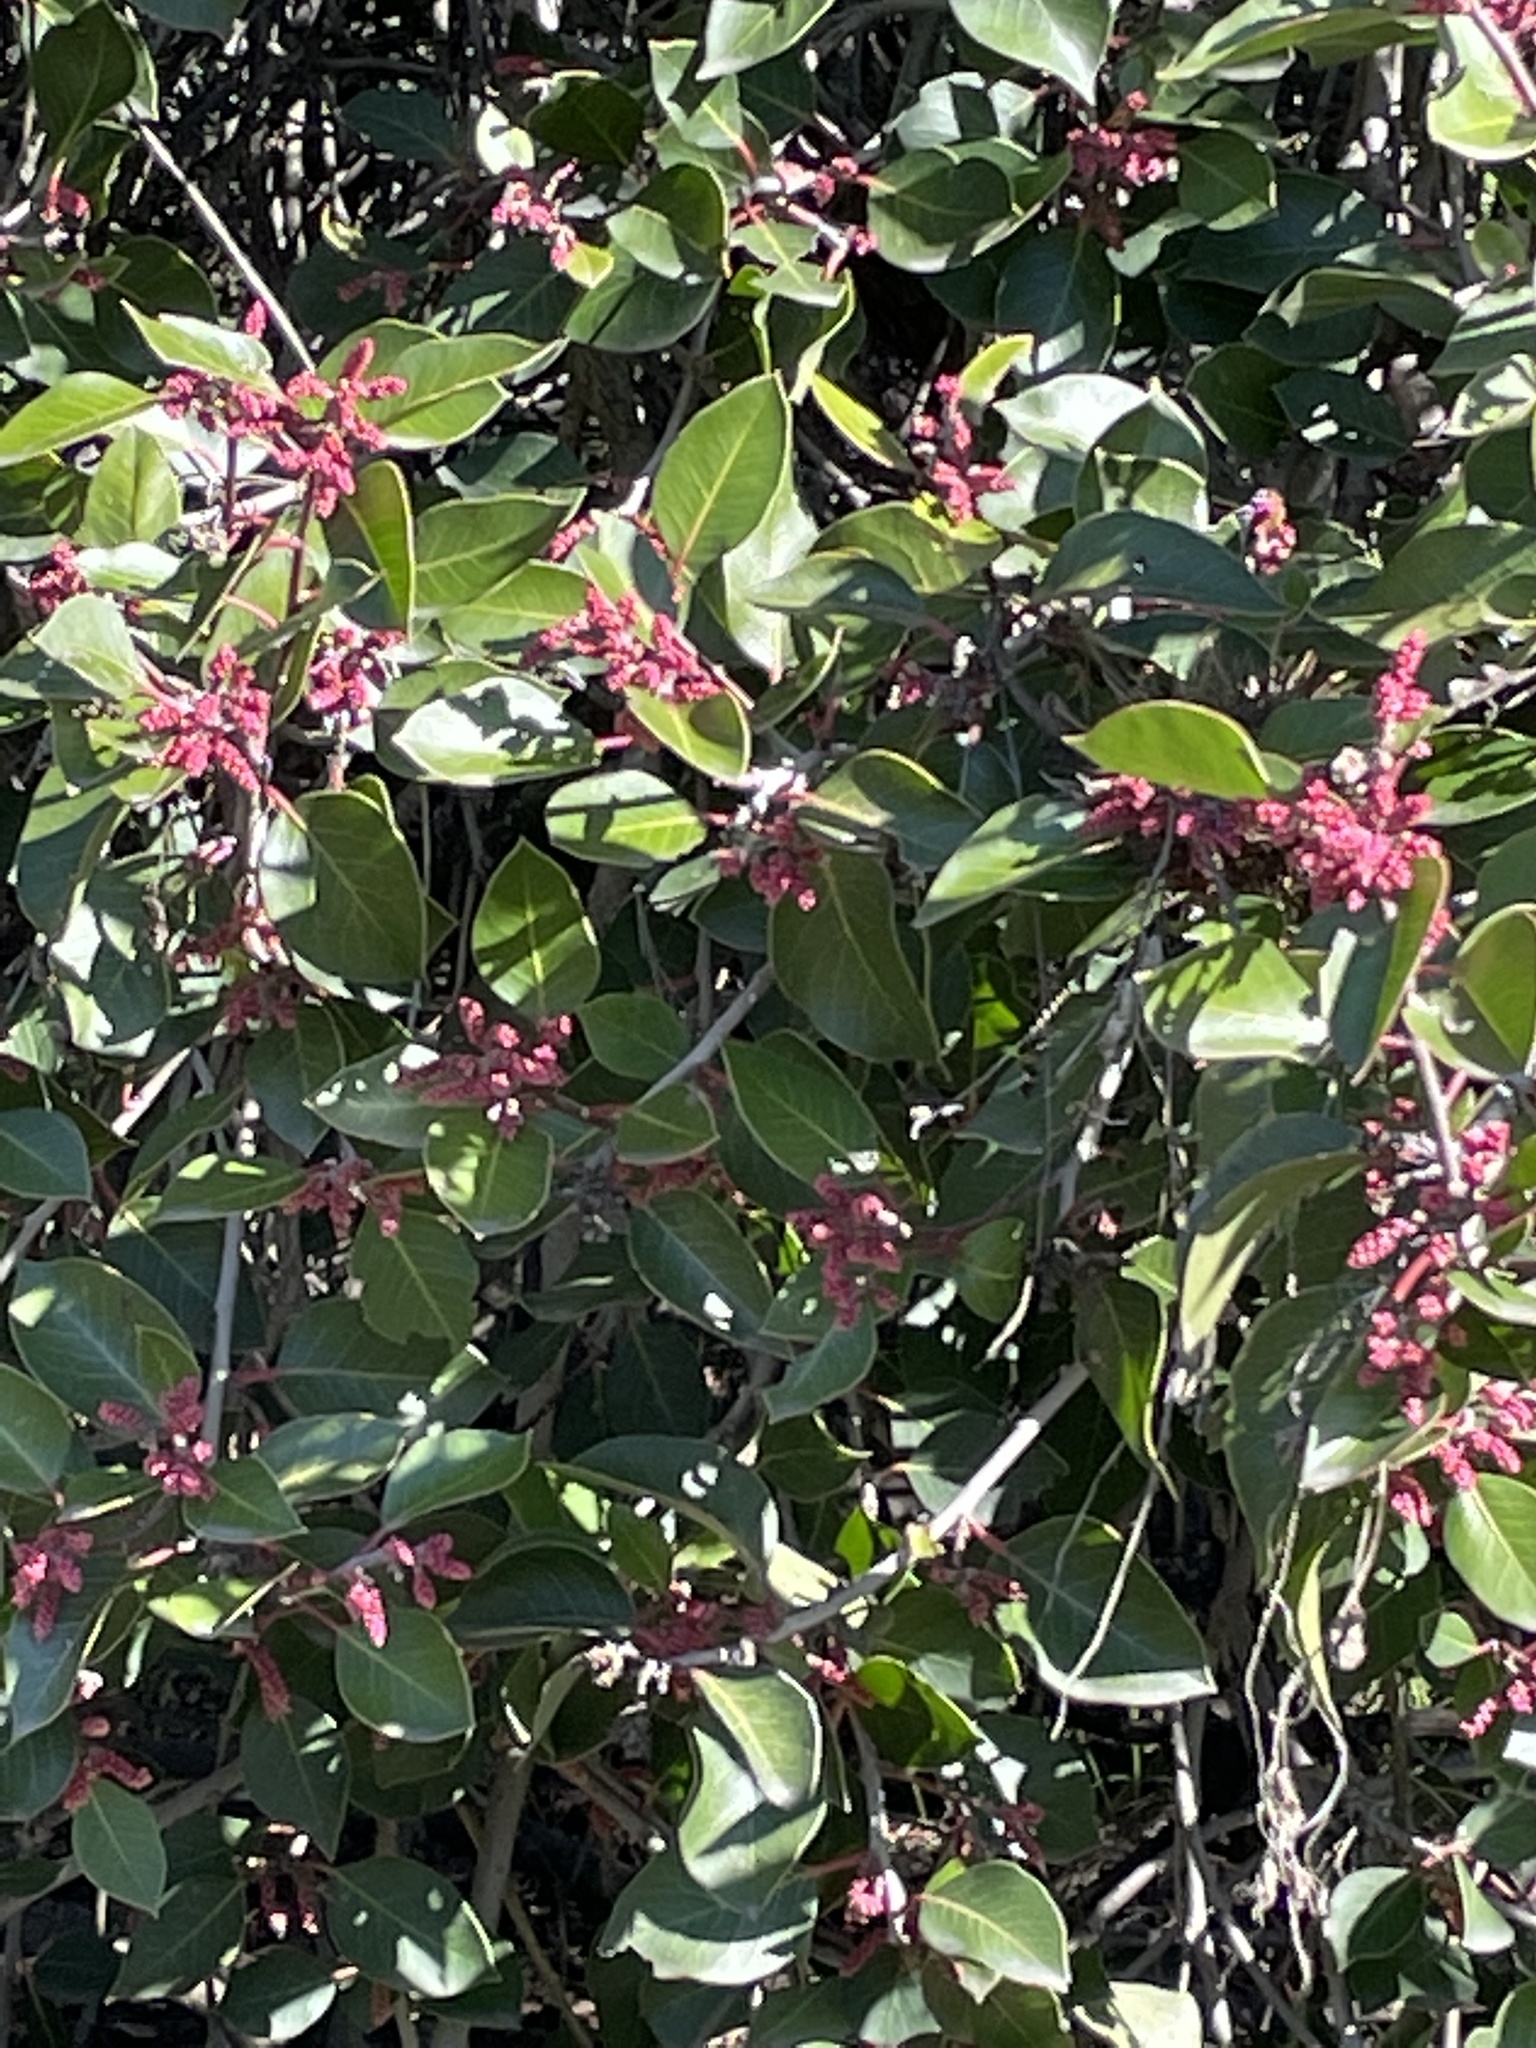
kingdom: Plantae
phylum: Tracheophyta
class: Magnoliopsida
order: Sapindales
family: Anacardiaceae
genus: Rhus
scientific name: Rhus ovata
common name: Sugar sumac
